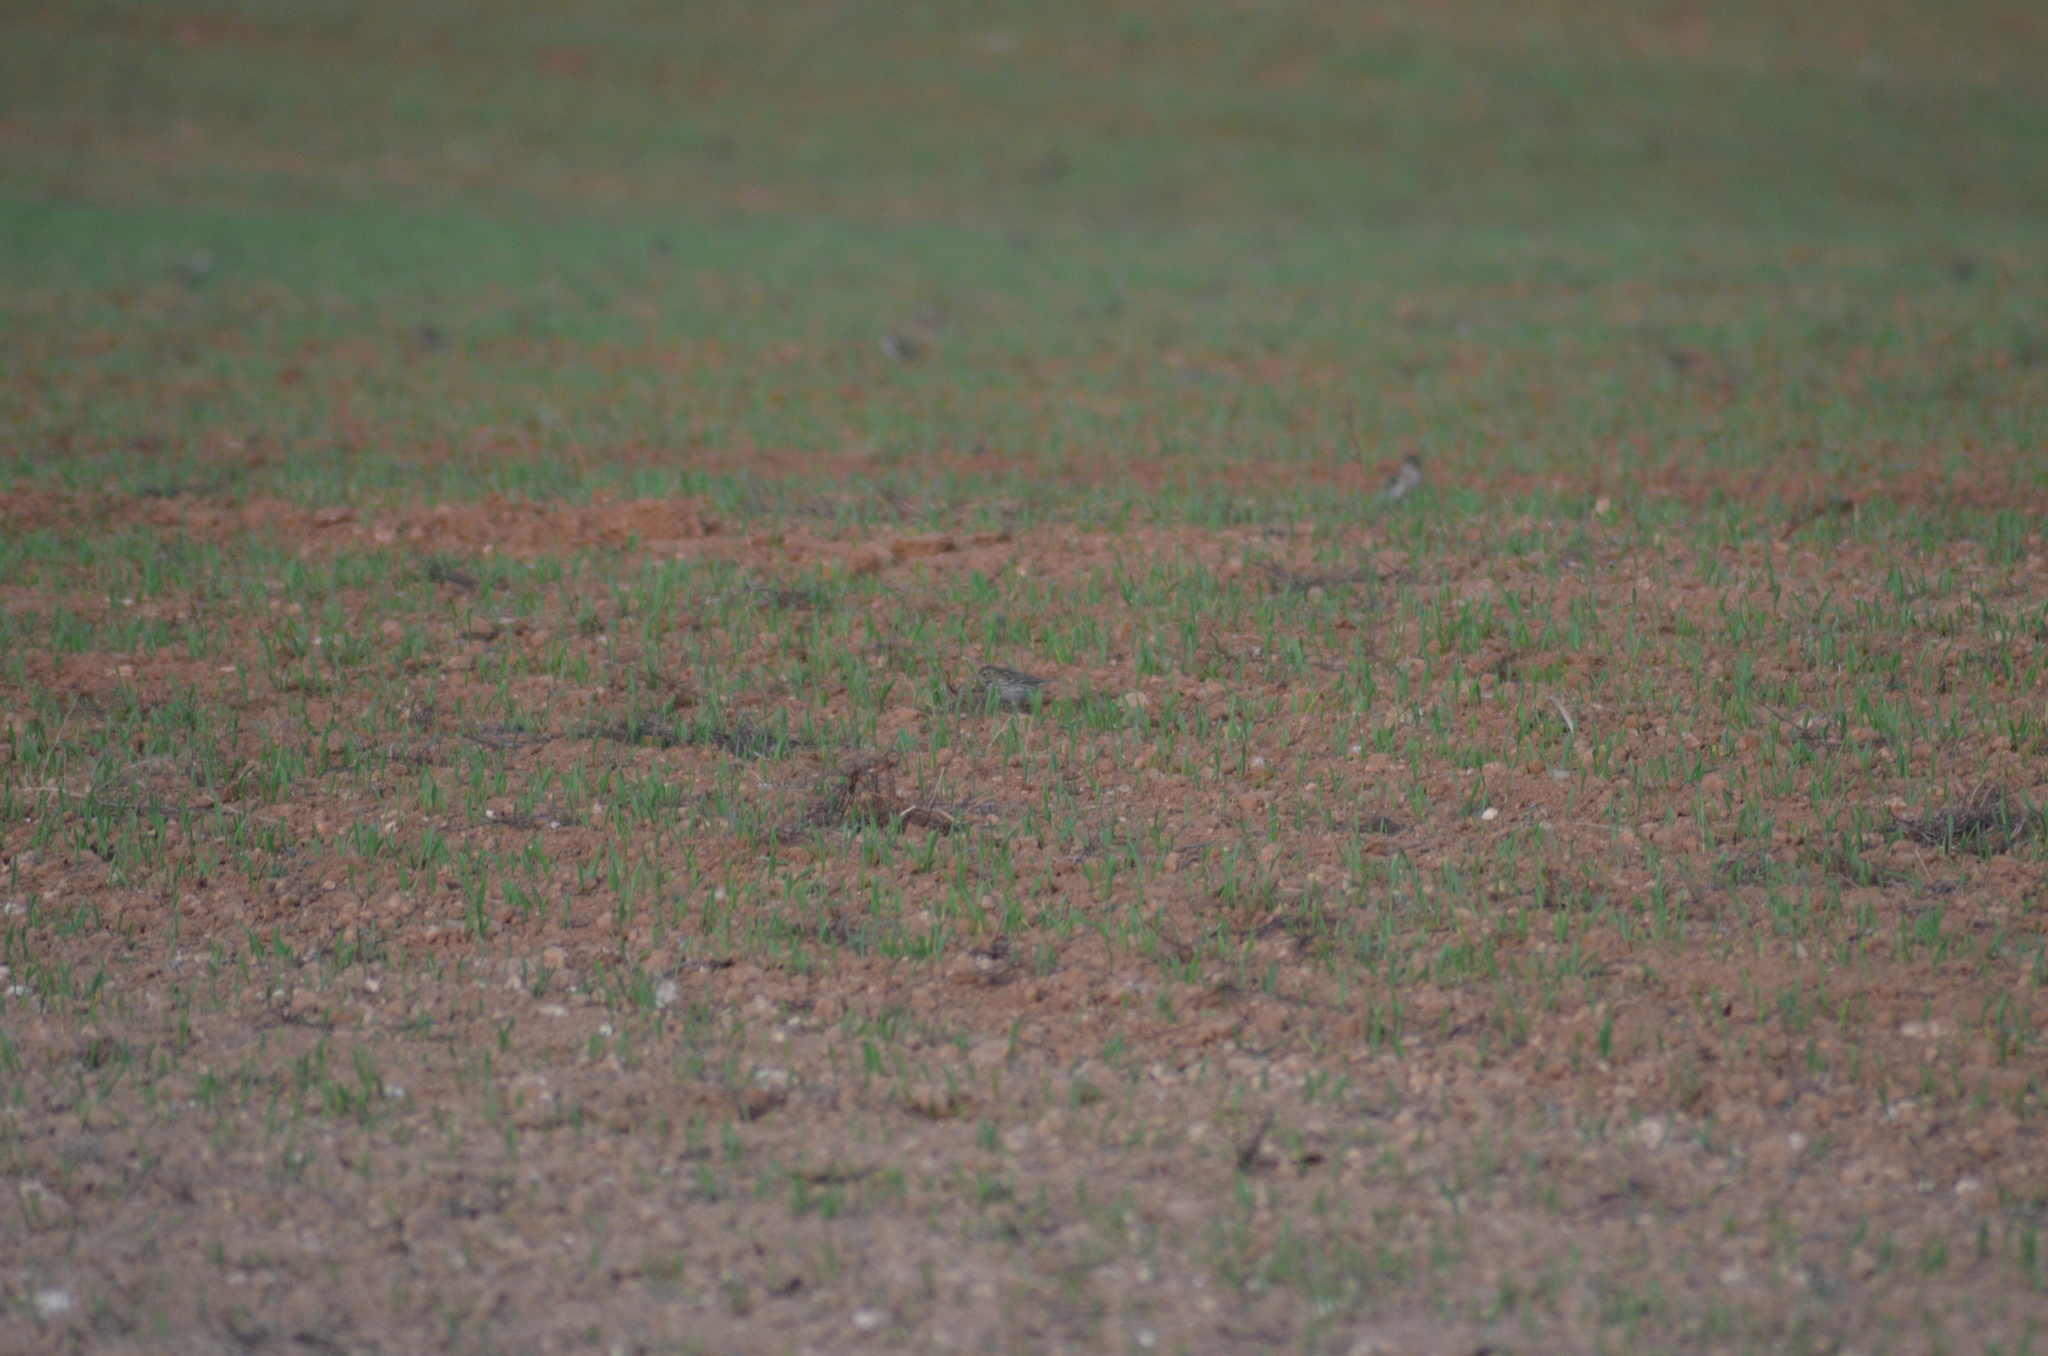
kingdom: Animalia
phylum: Chordata
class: Aves
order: Passeriformes
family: Motacillidae
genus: Anthus
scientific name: Anthus pratensis
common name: Meadow pipit
